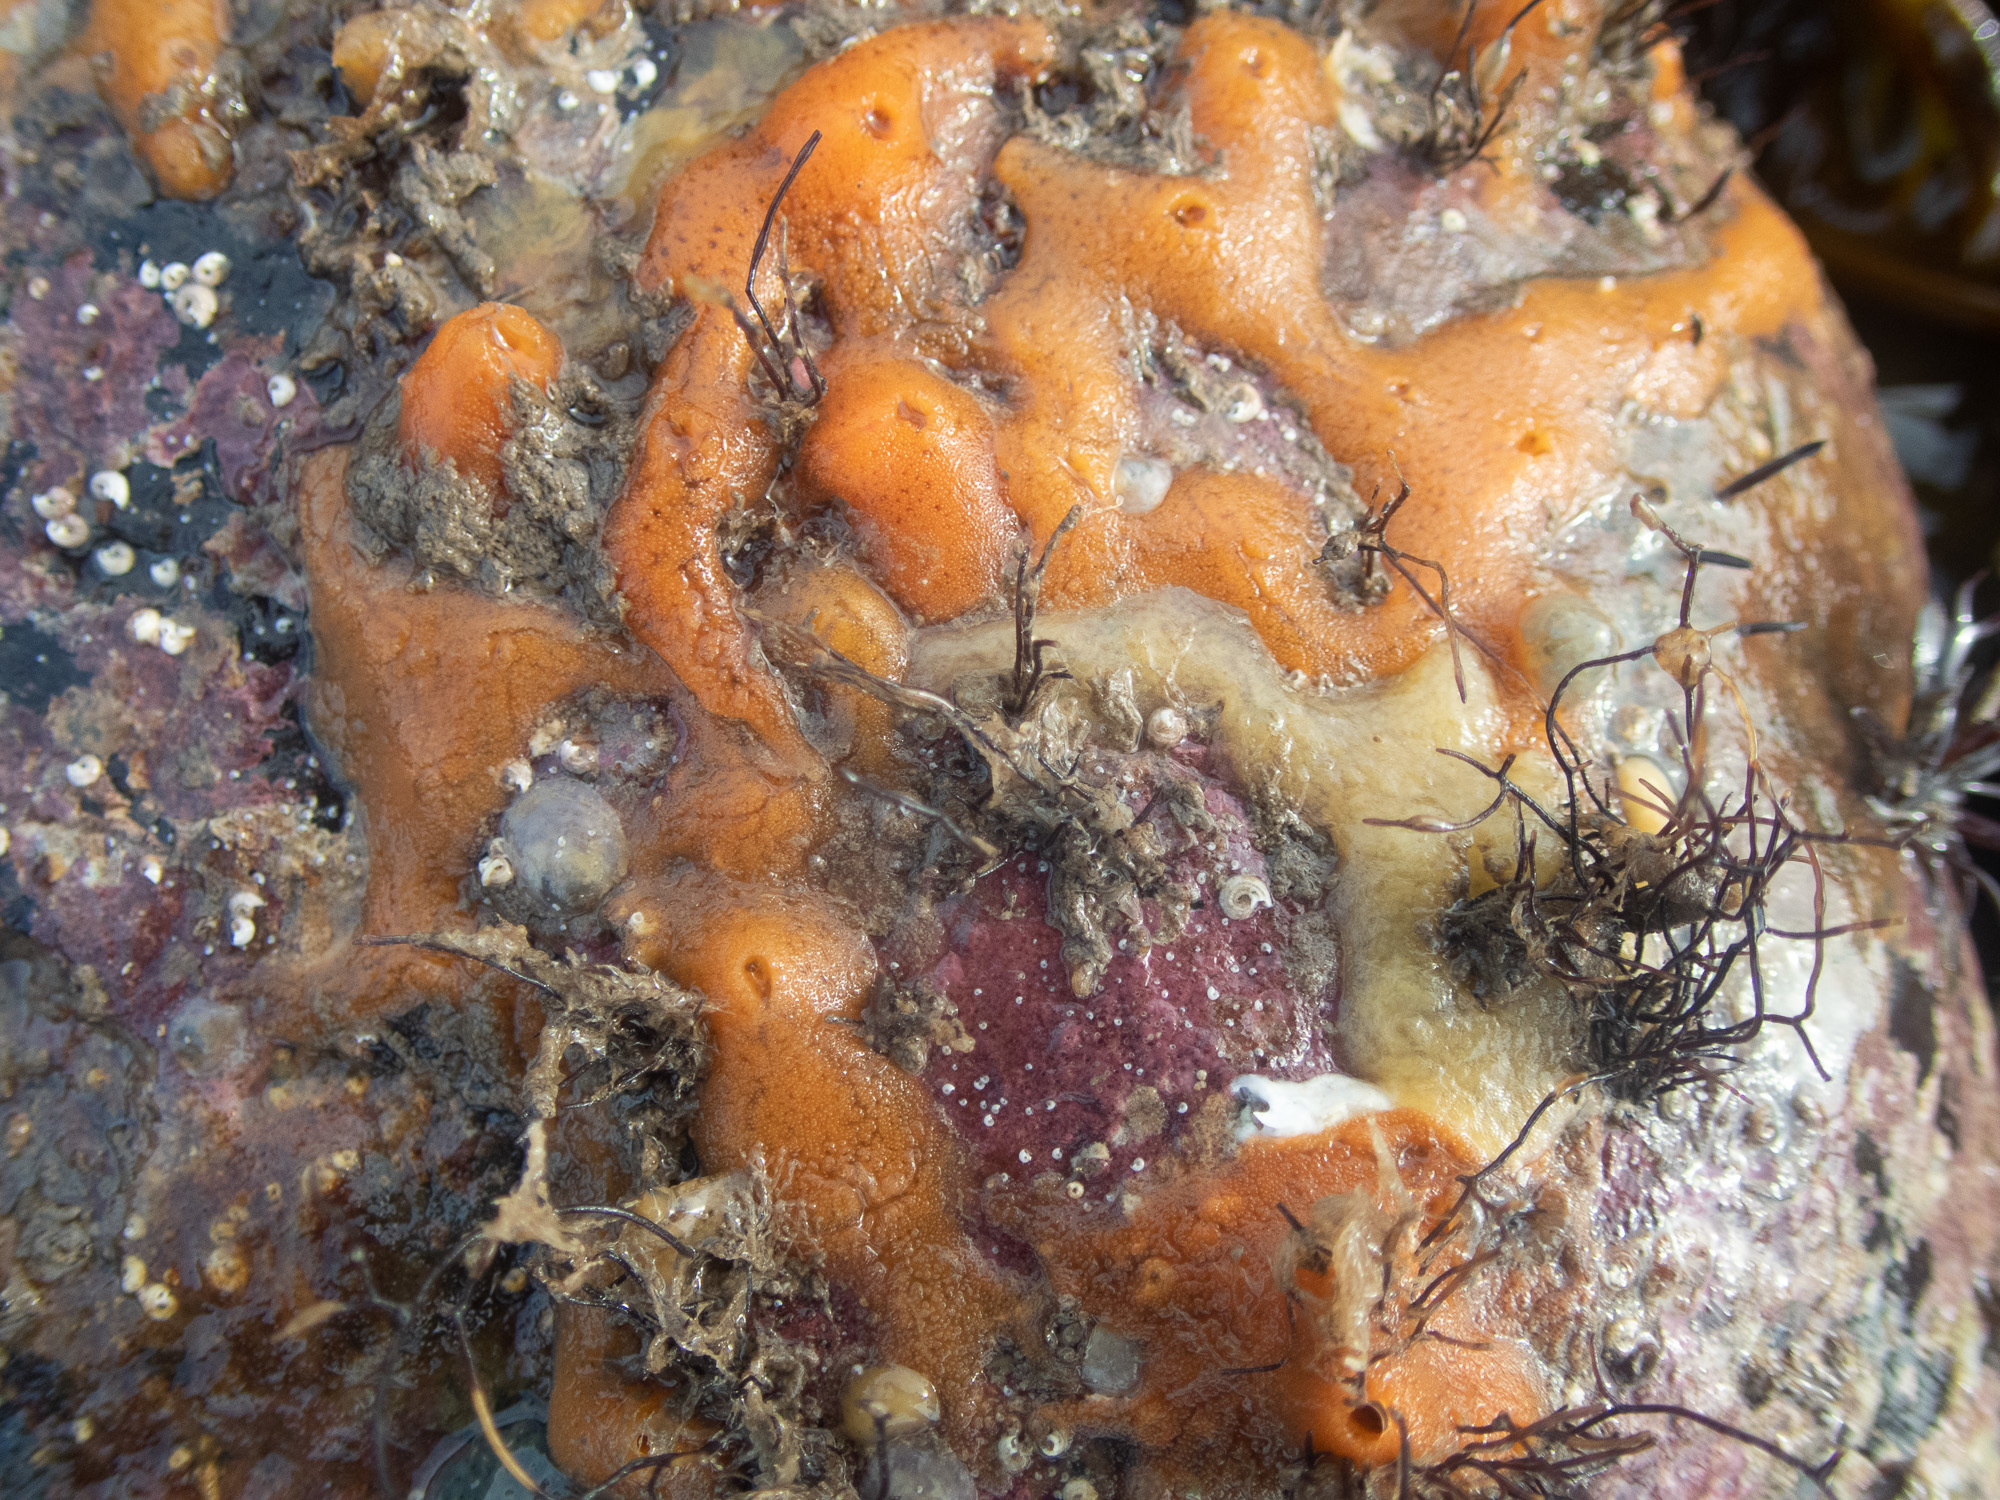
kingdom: Animalia
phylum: Porifera
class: Demospongiae
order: Poecilosclerida
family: Esperiopsidae
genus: Amphilectus
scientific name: Amphilectus fucorum
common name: Carrot-sponge
